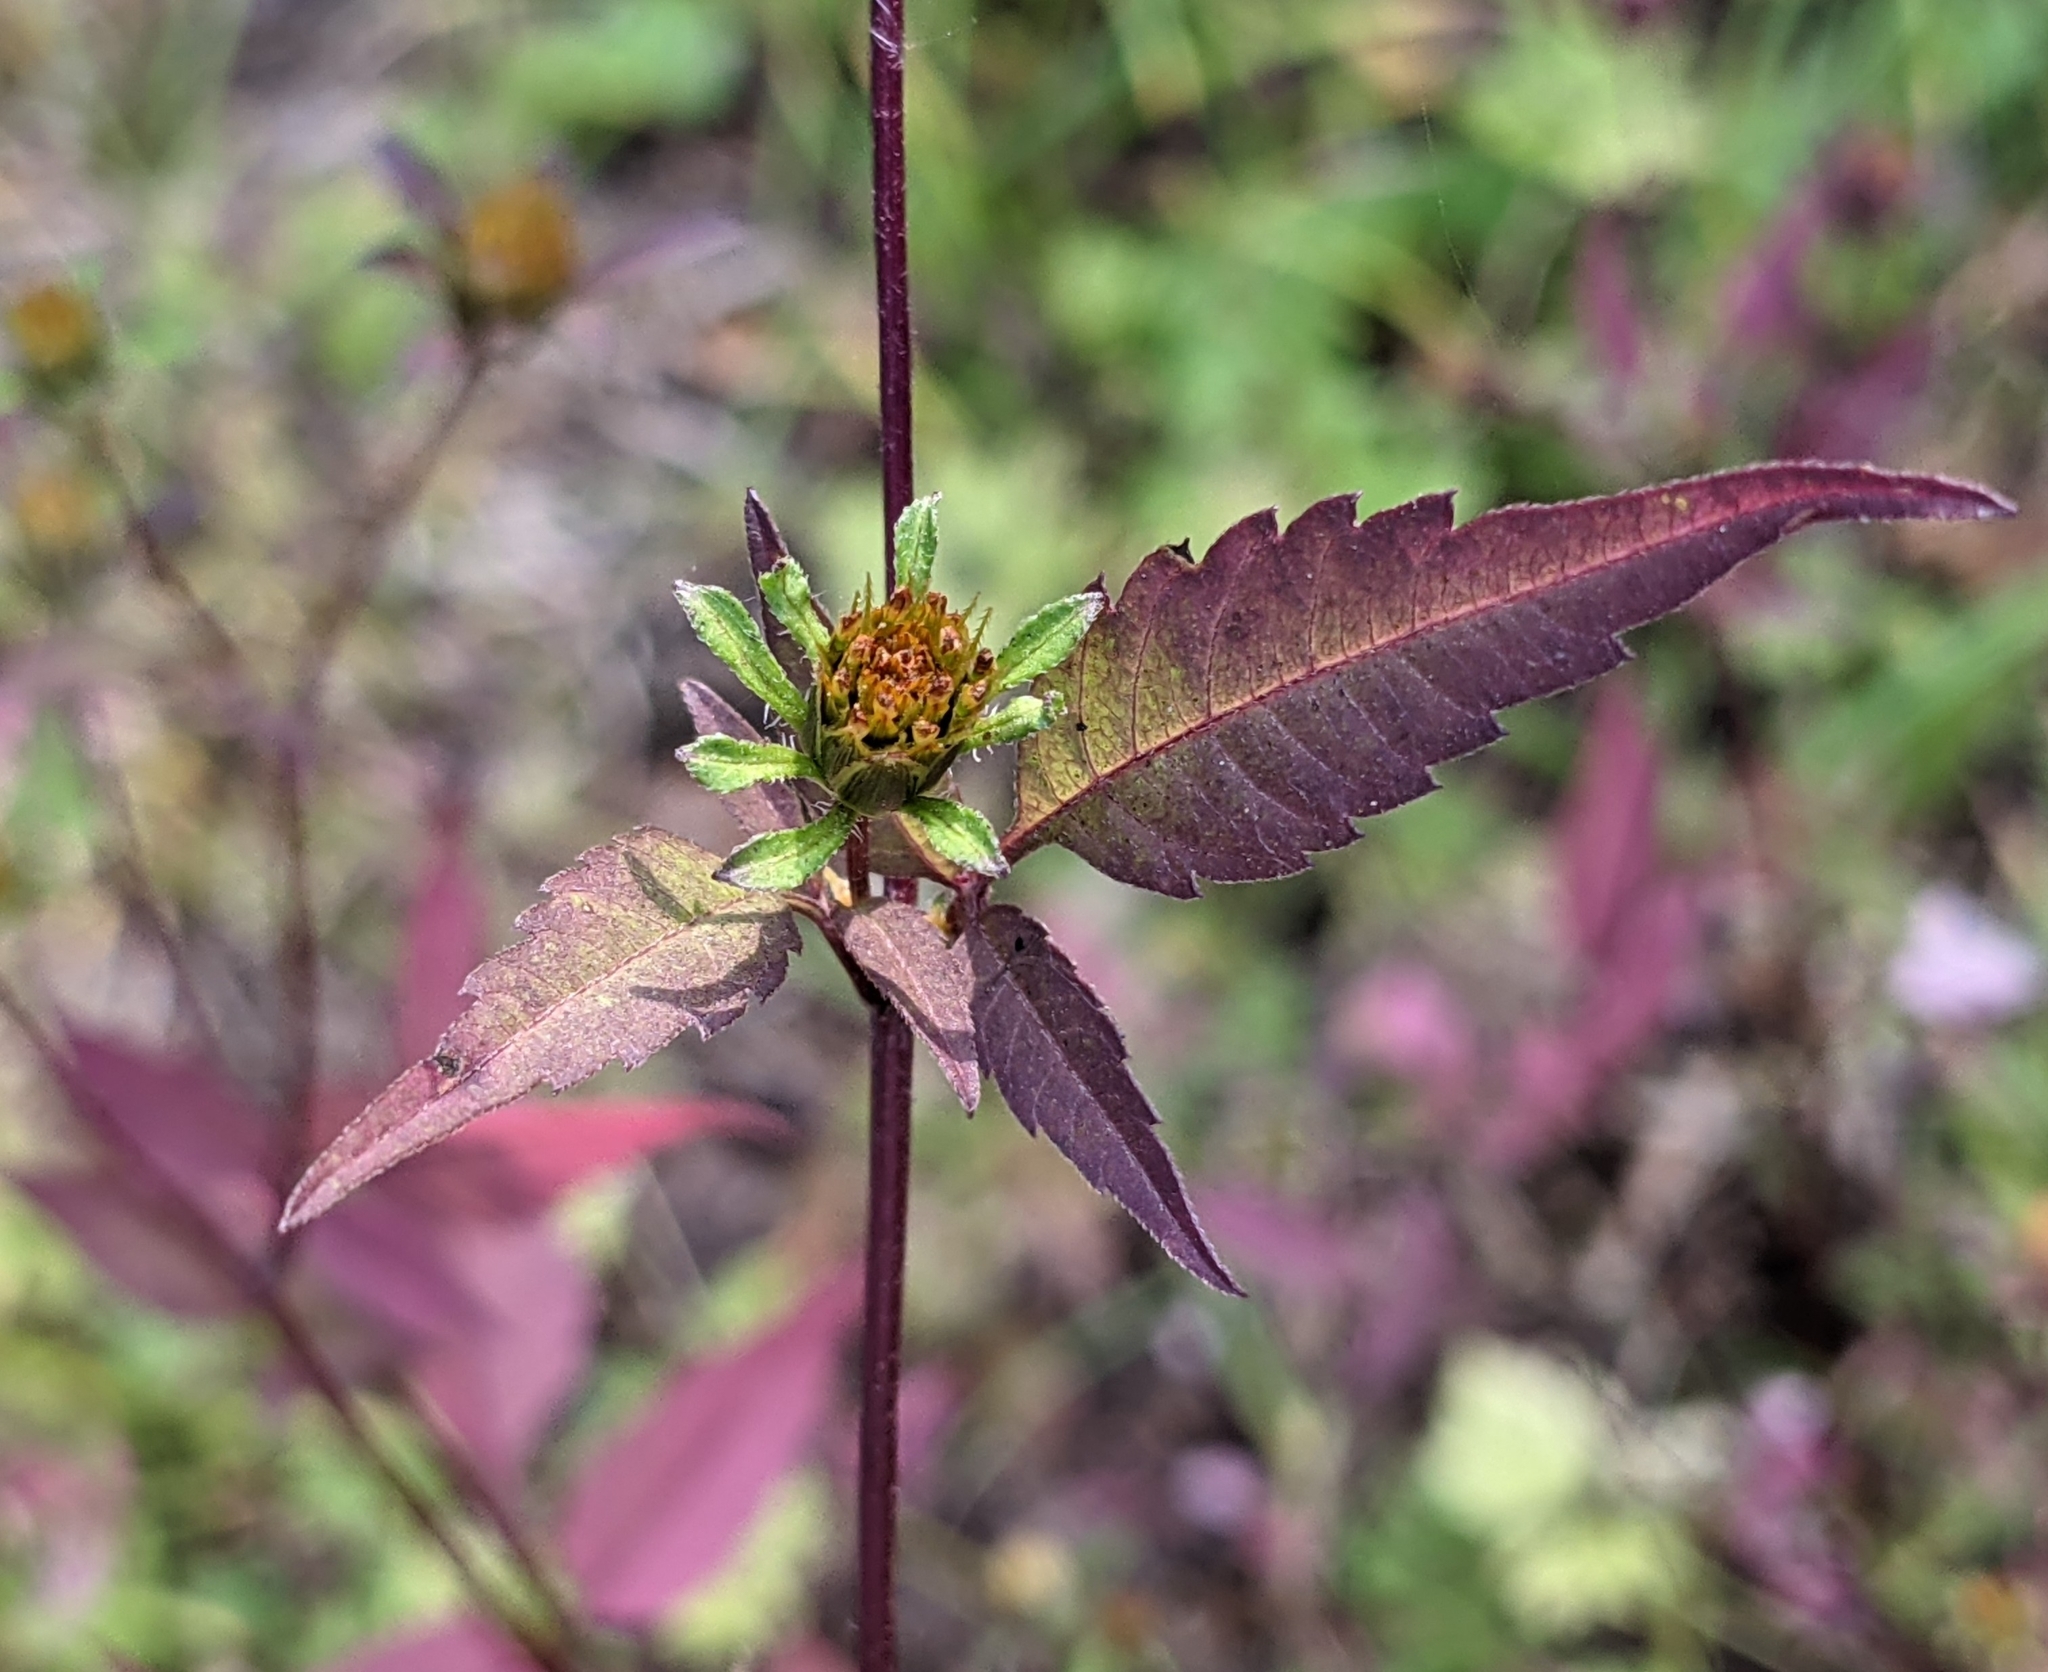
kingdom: Plantae
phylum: Tracheophyta
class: Magnoliopsida
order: Asterales
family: Asteraceae
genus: Bidens
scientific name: Bidens frondosa
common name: Beggarticks
